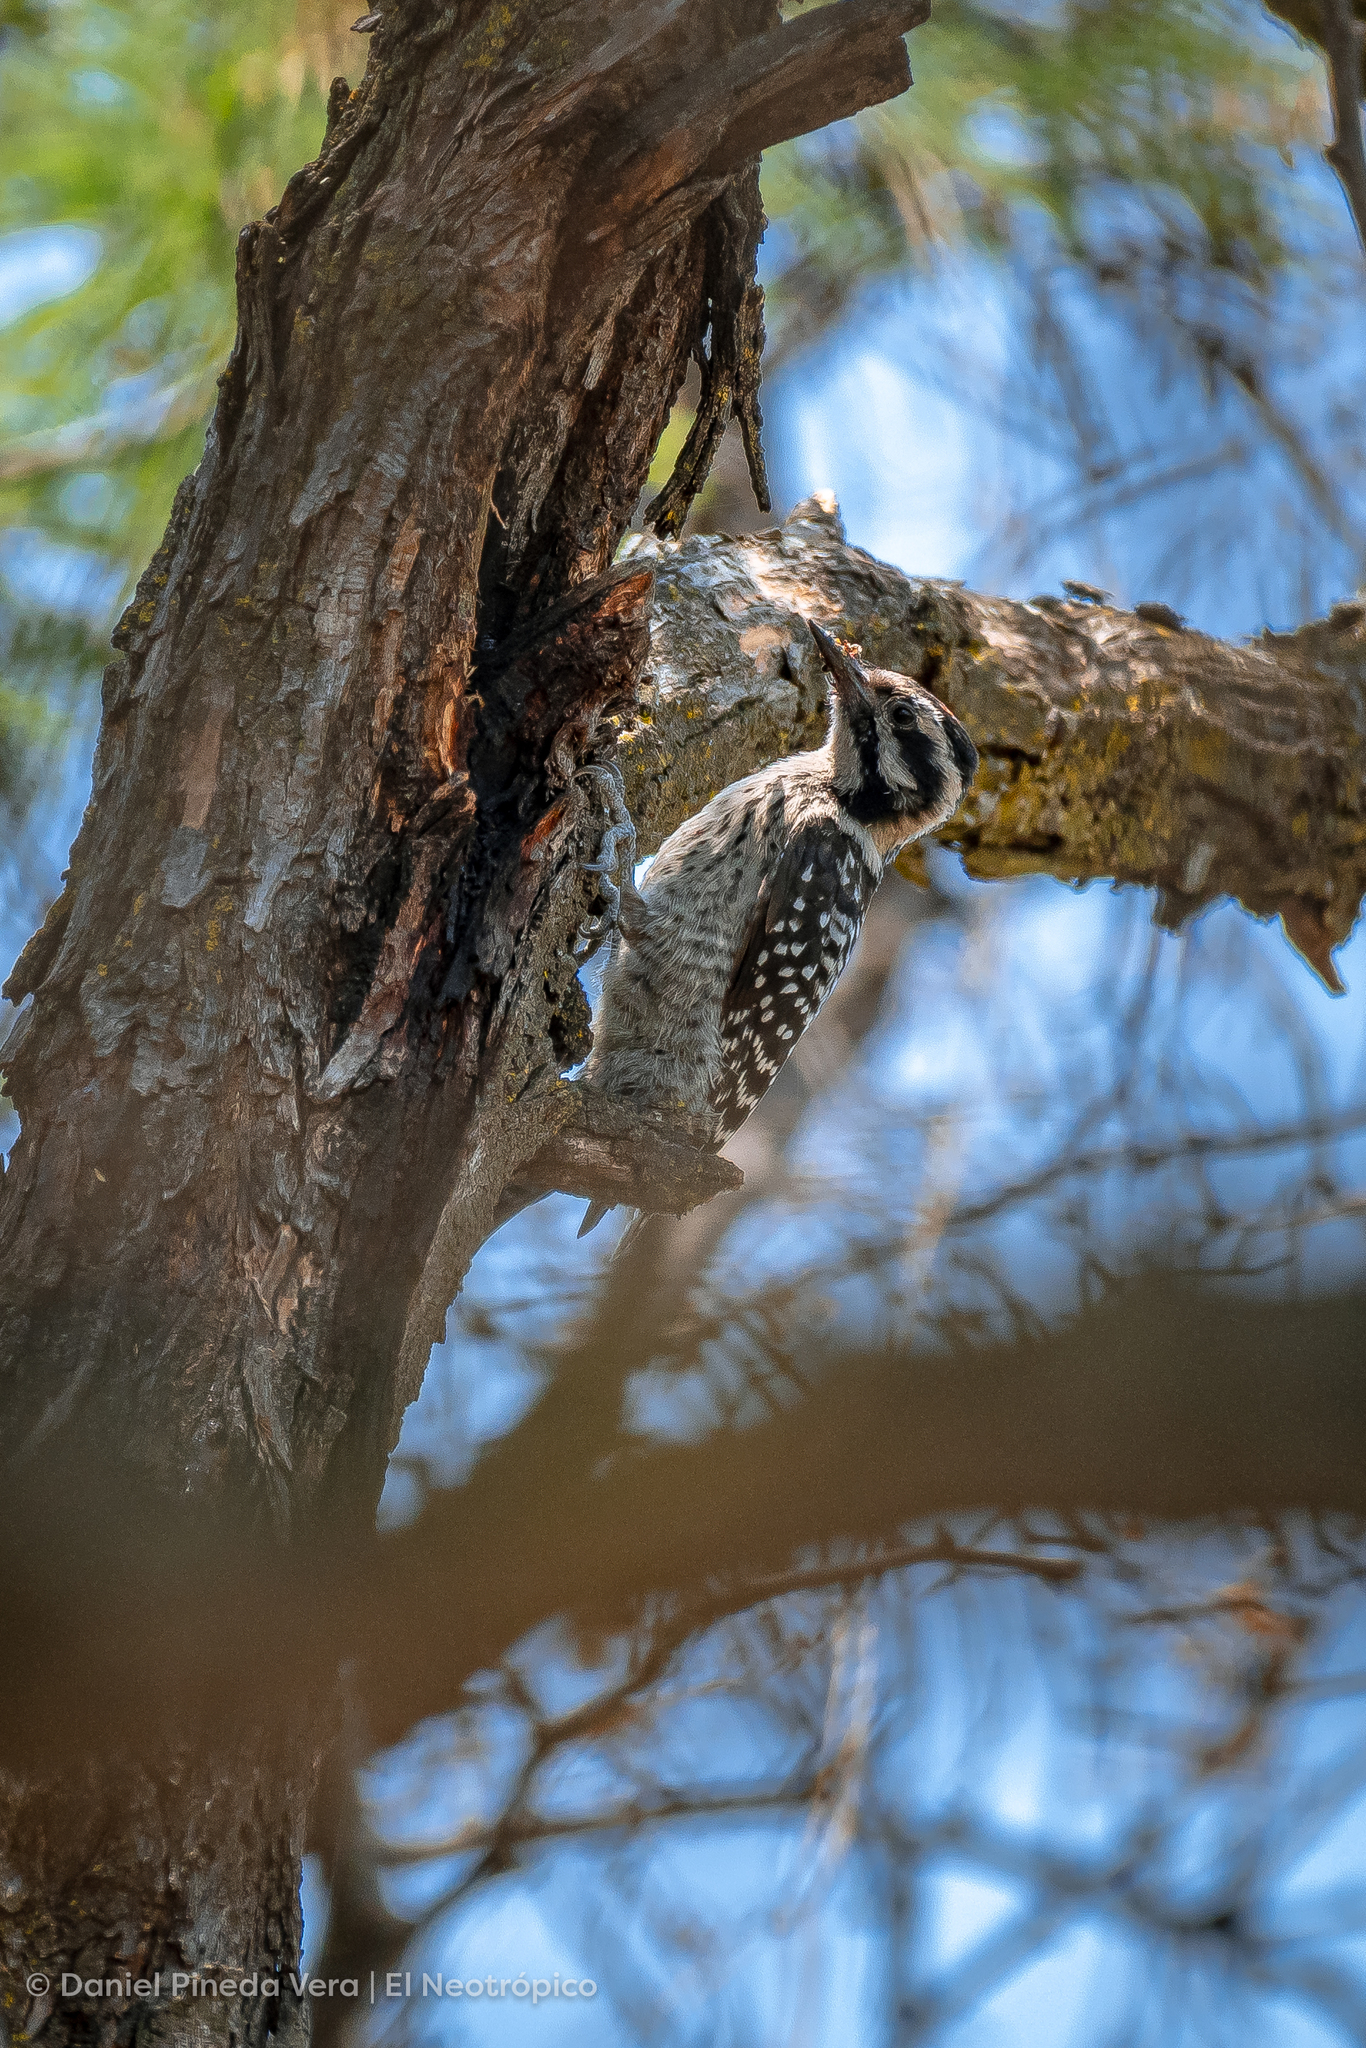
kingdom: Animalia
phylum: Chordata
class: Aves
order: Piciformes
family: Picidae
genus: Dryobates
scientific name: Dryobates scalaris
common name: Ladder-backed woodpecker
